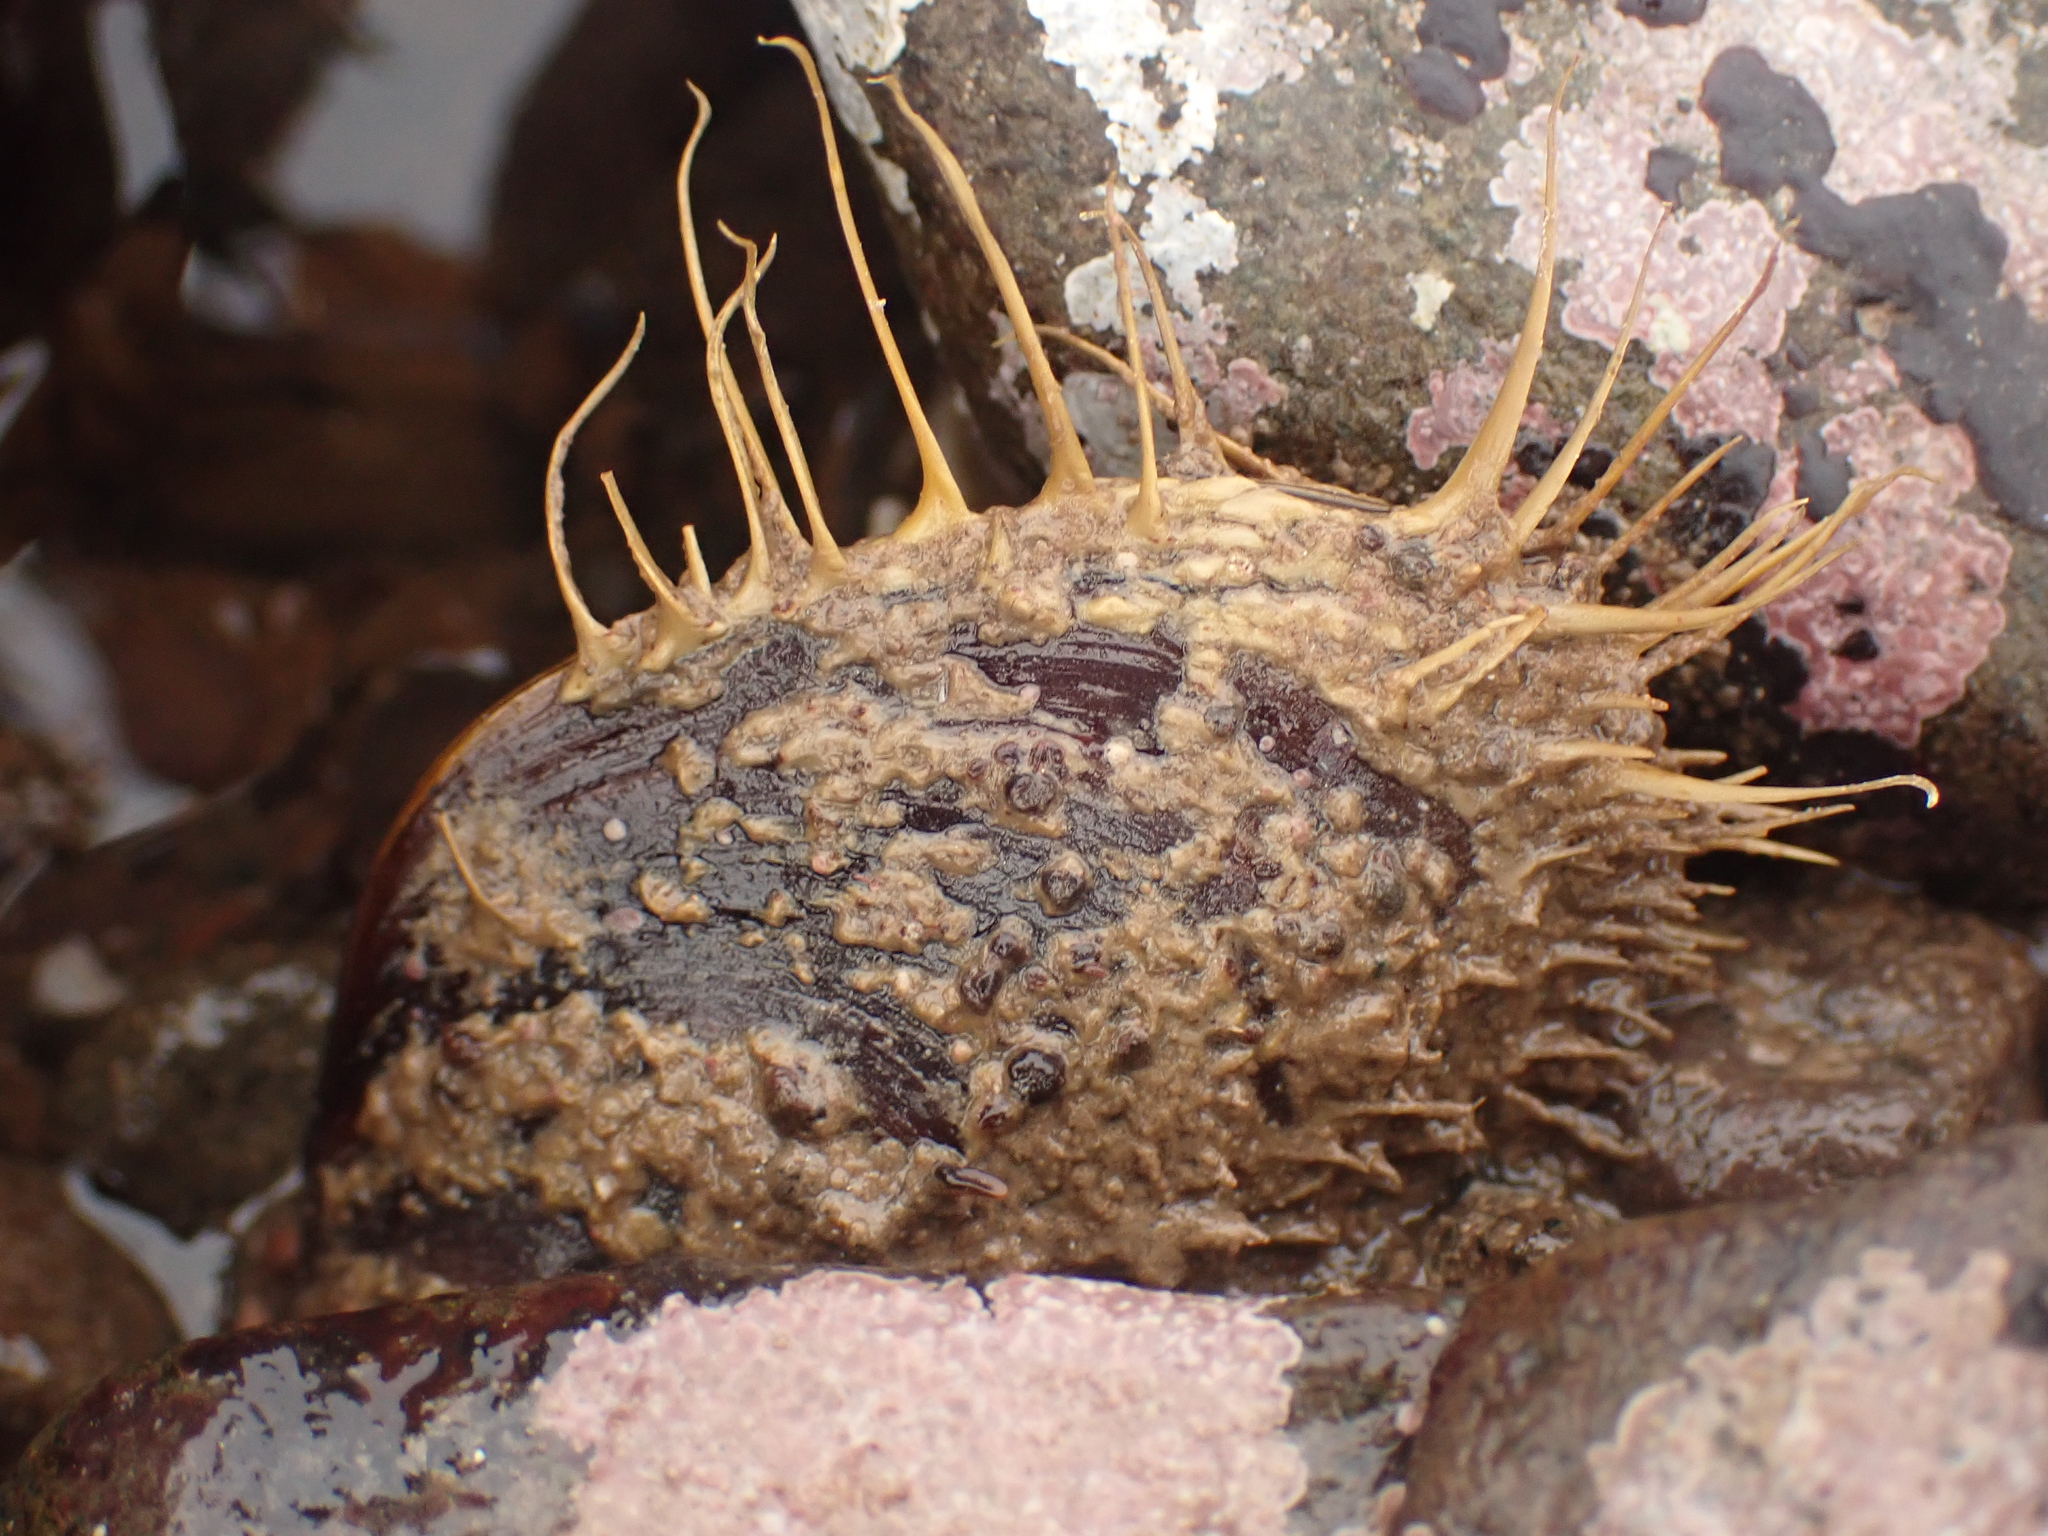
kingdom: Animalia
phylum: Mollusca
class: Bivalvia
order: Mytilida
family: Mytilidae
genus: Modiolus
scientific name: Modiolus modiolus
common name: Horse-mussel
